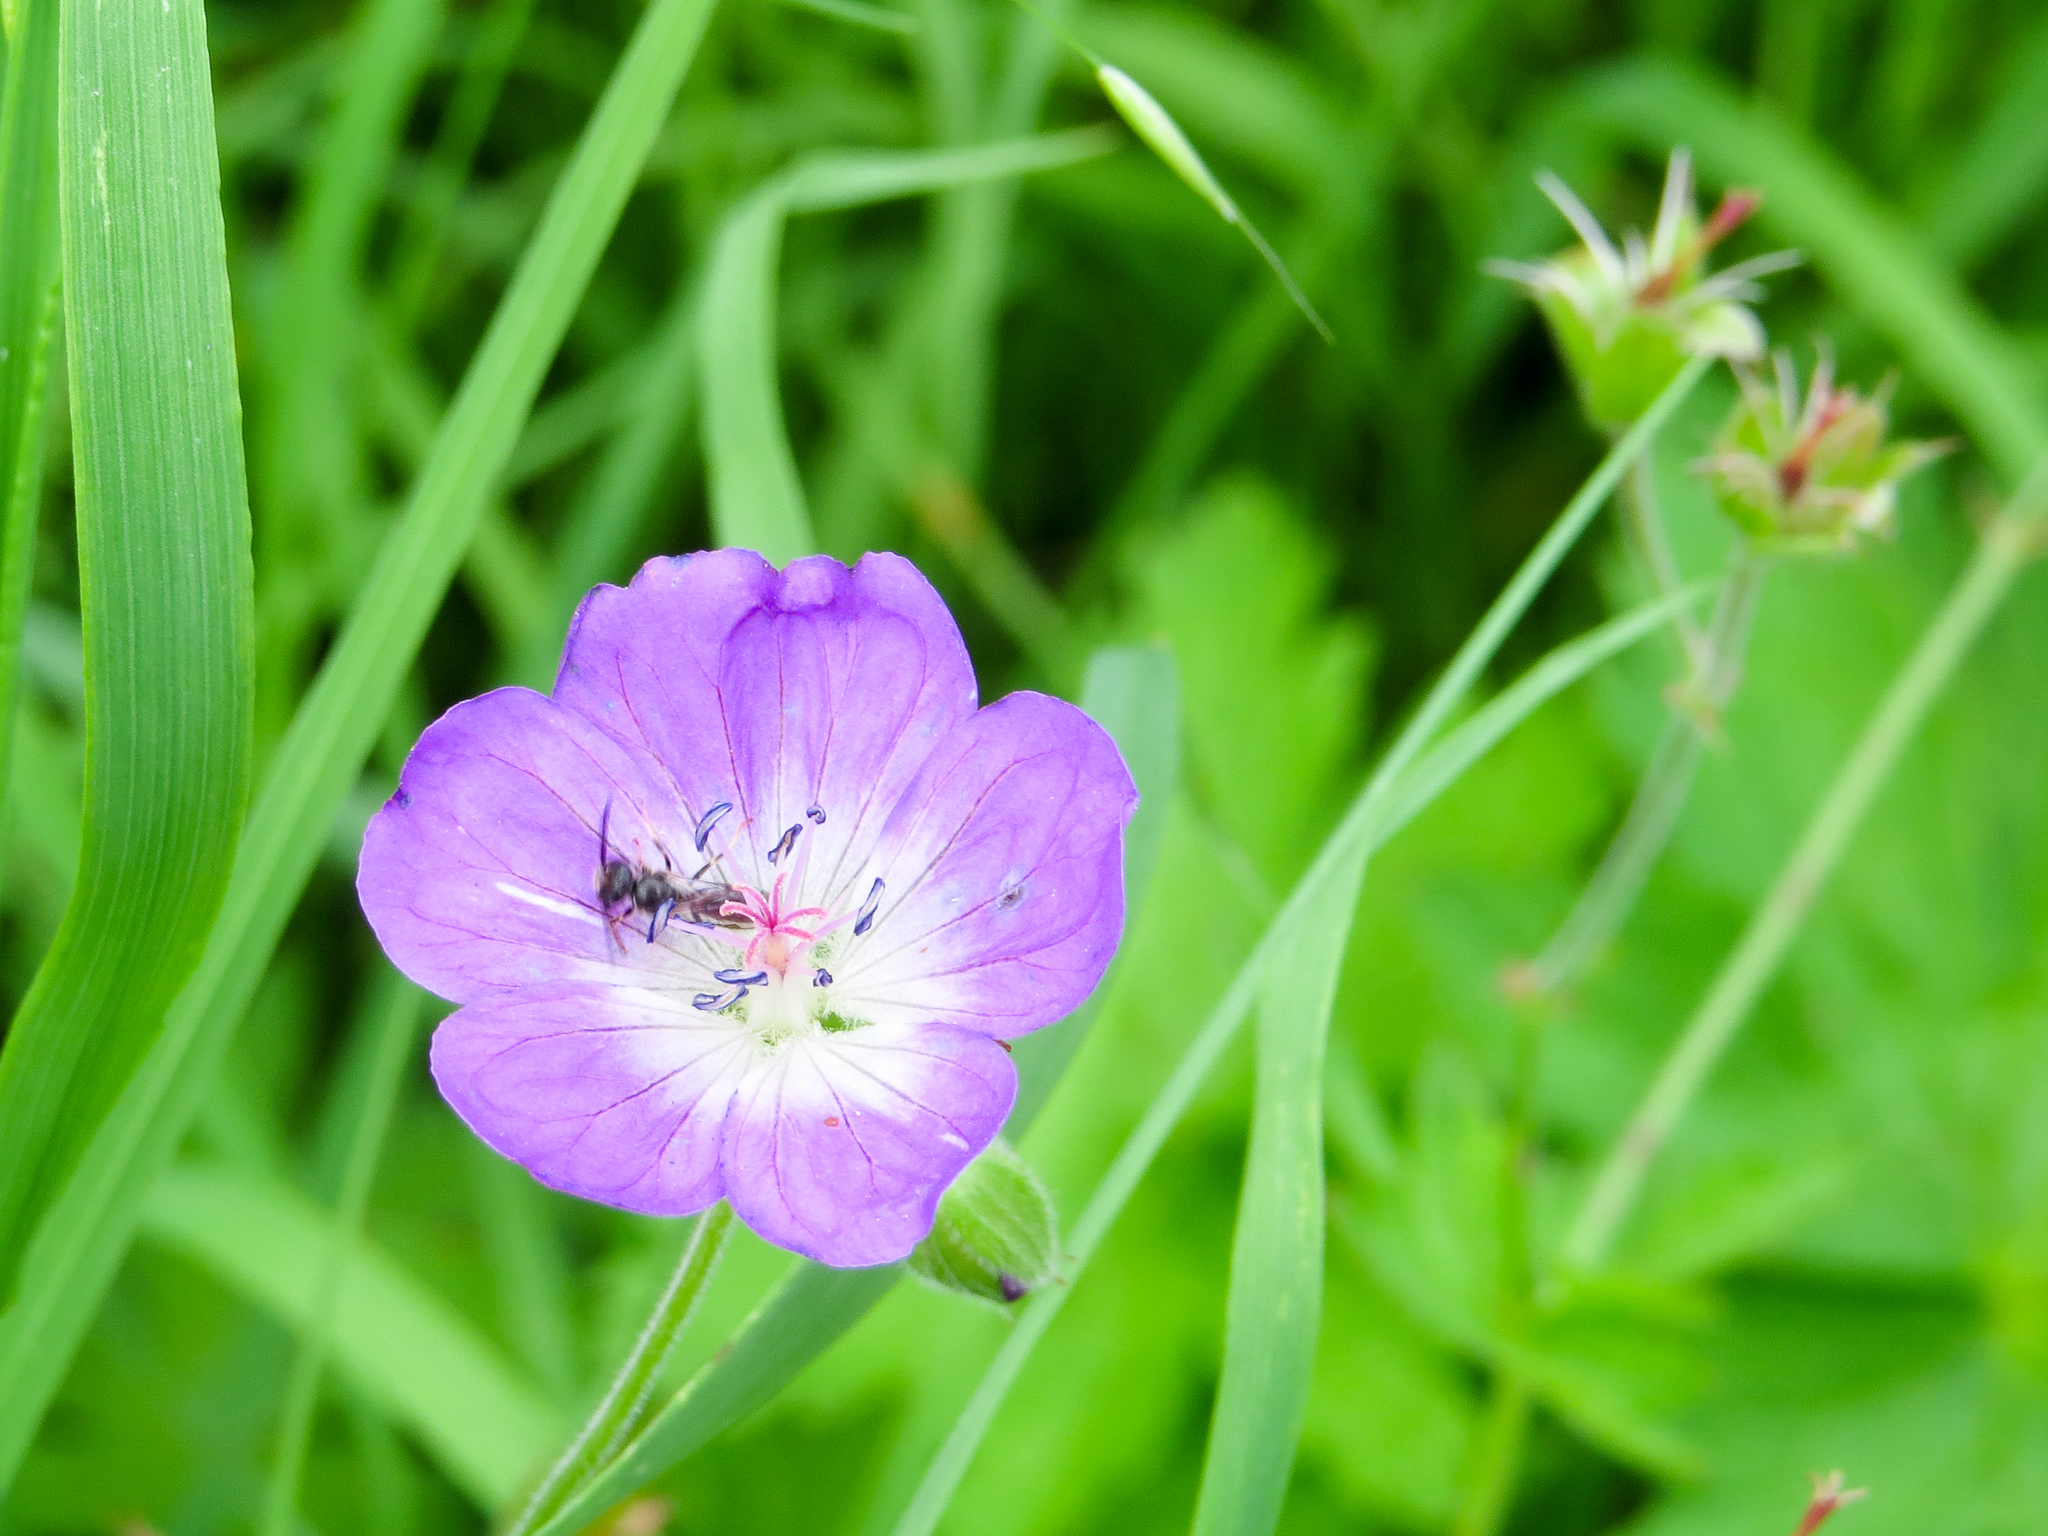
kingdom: Plantae
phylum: Tracheophyta
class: Magnoliopsida
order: Geraniales
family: Geraniaceae
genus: Geranium
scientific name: Geranium sylvaticum
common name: Wood crane's-bill
